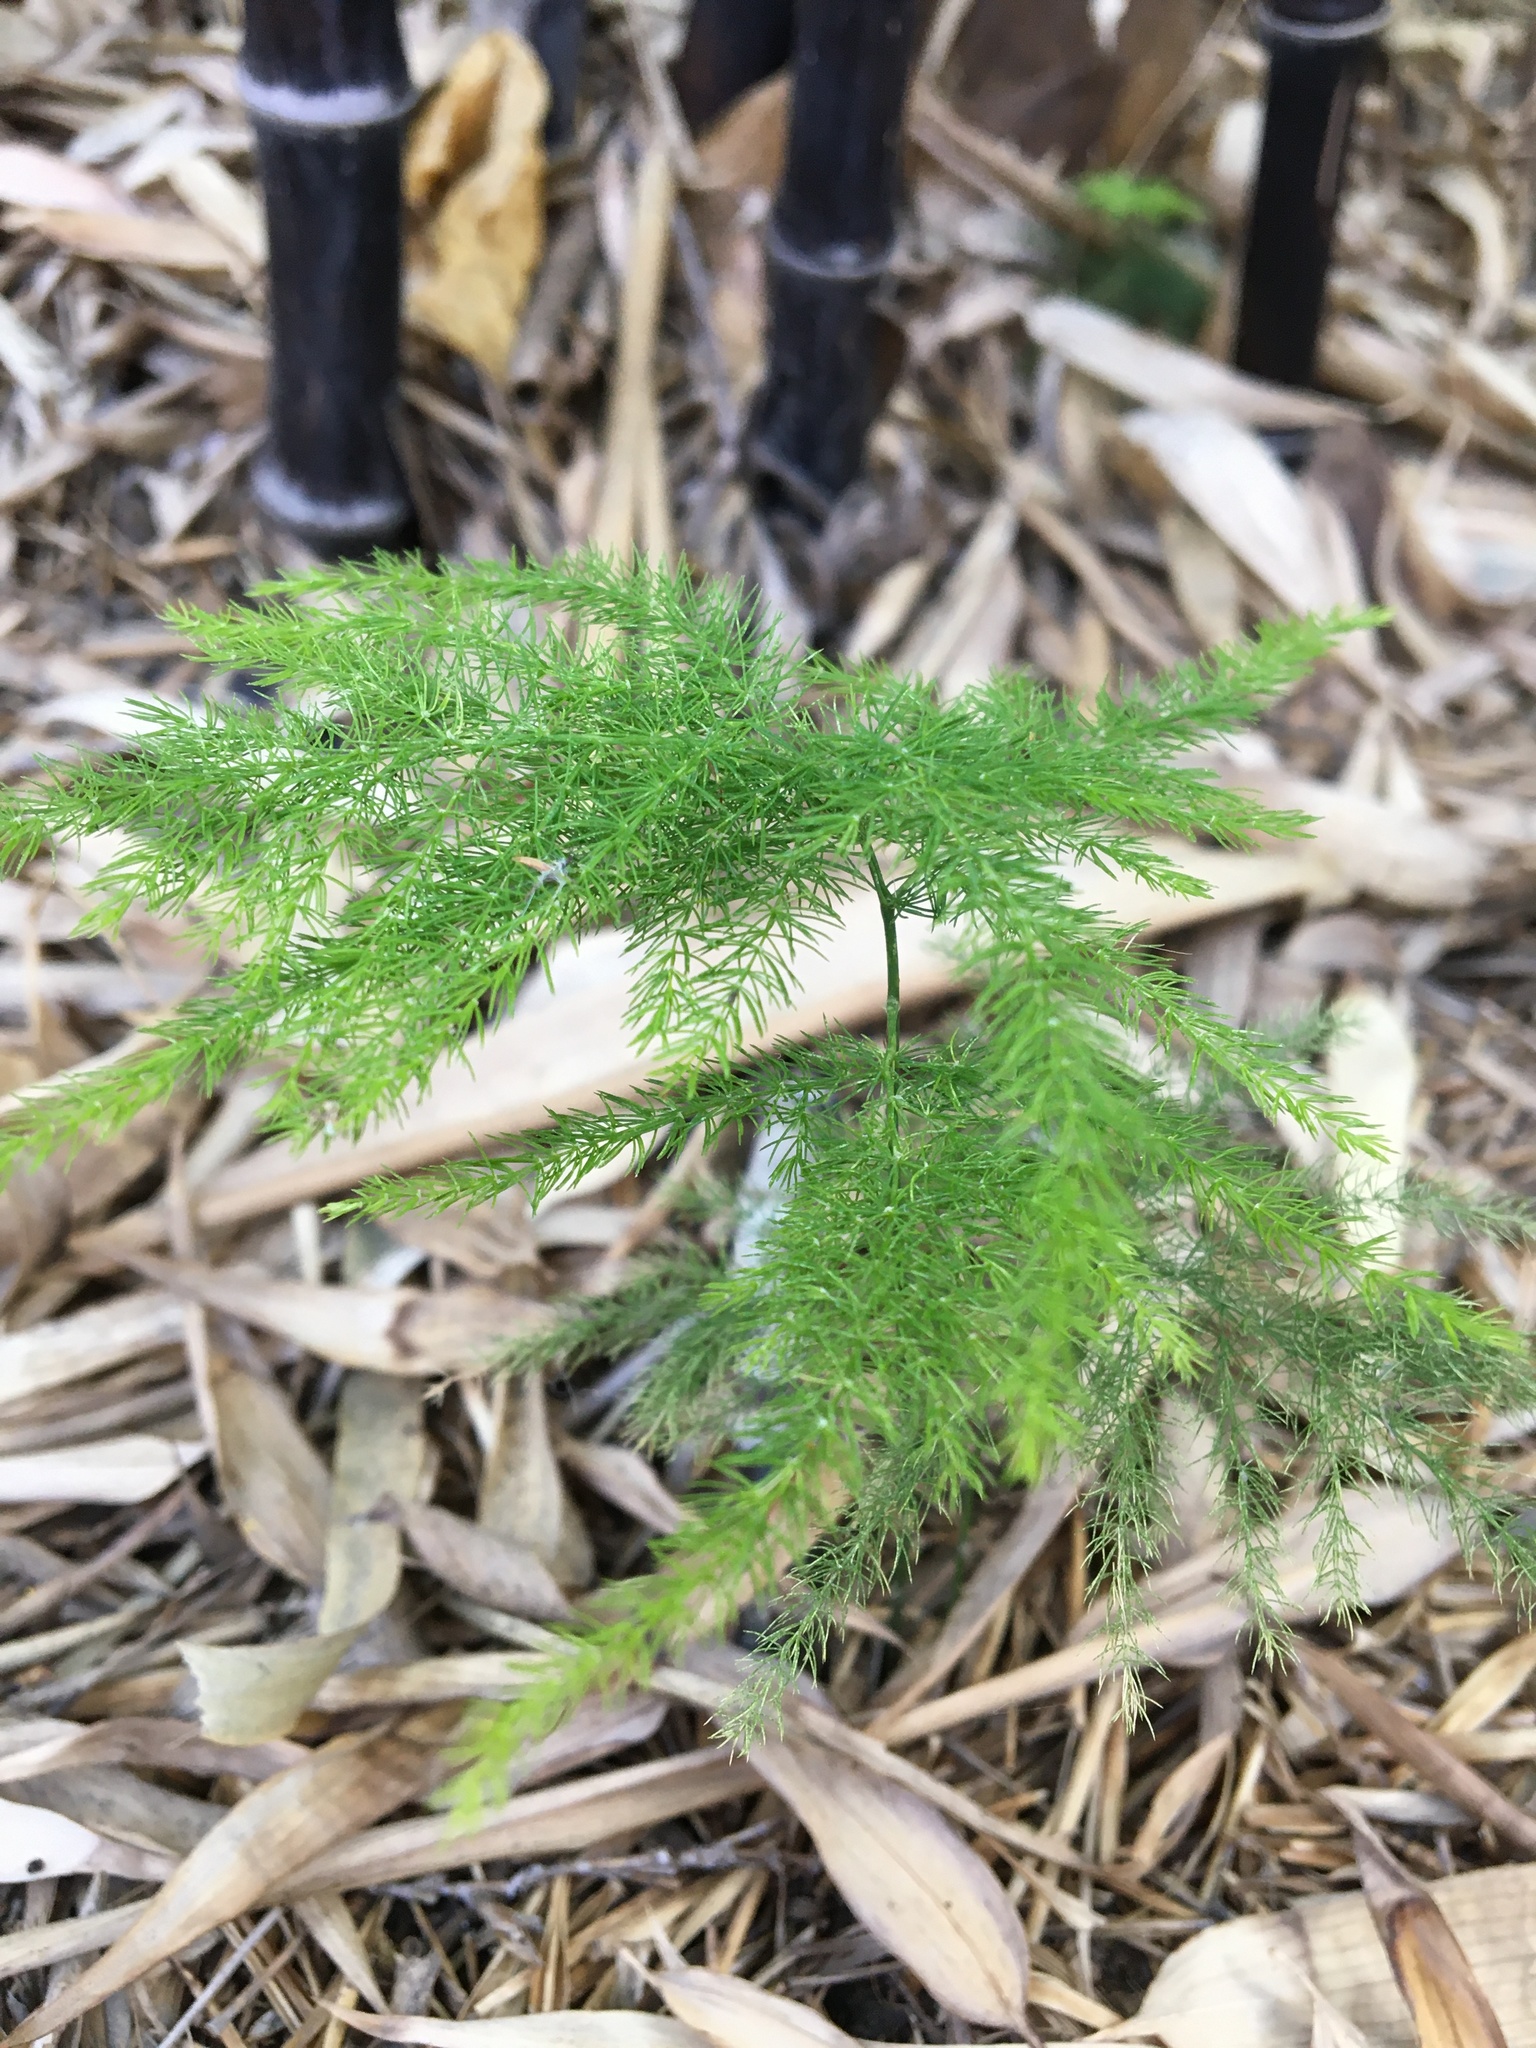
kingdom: Plantae
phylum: Tracheophyta
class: Liliopsida
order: Asparagales
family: Asparagaceae
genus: Asparagus
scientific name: Asparagus setaceus
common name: Common asparagus fern
